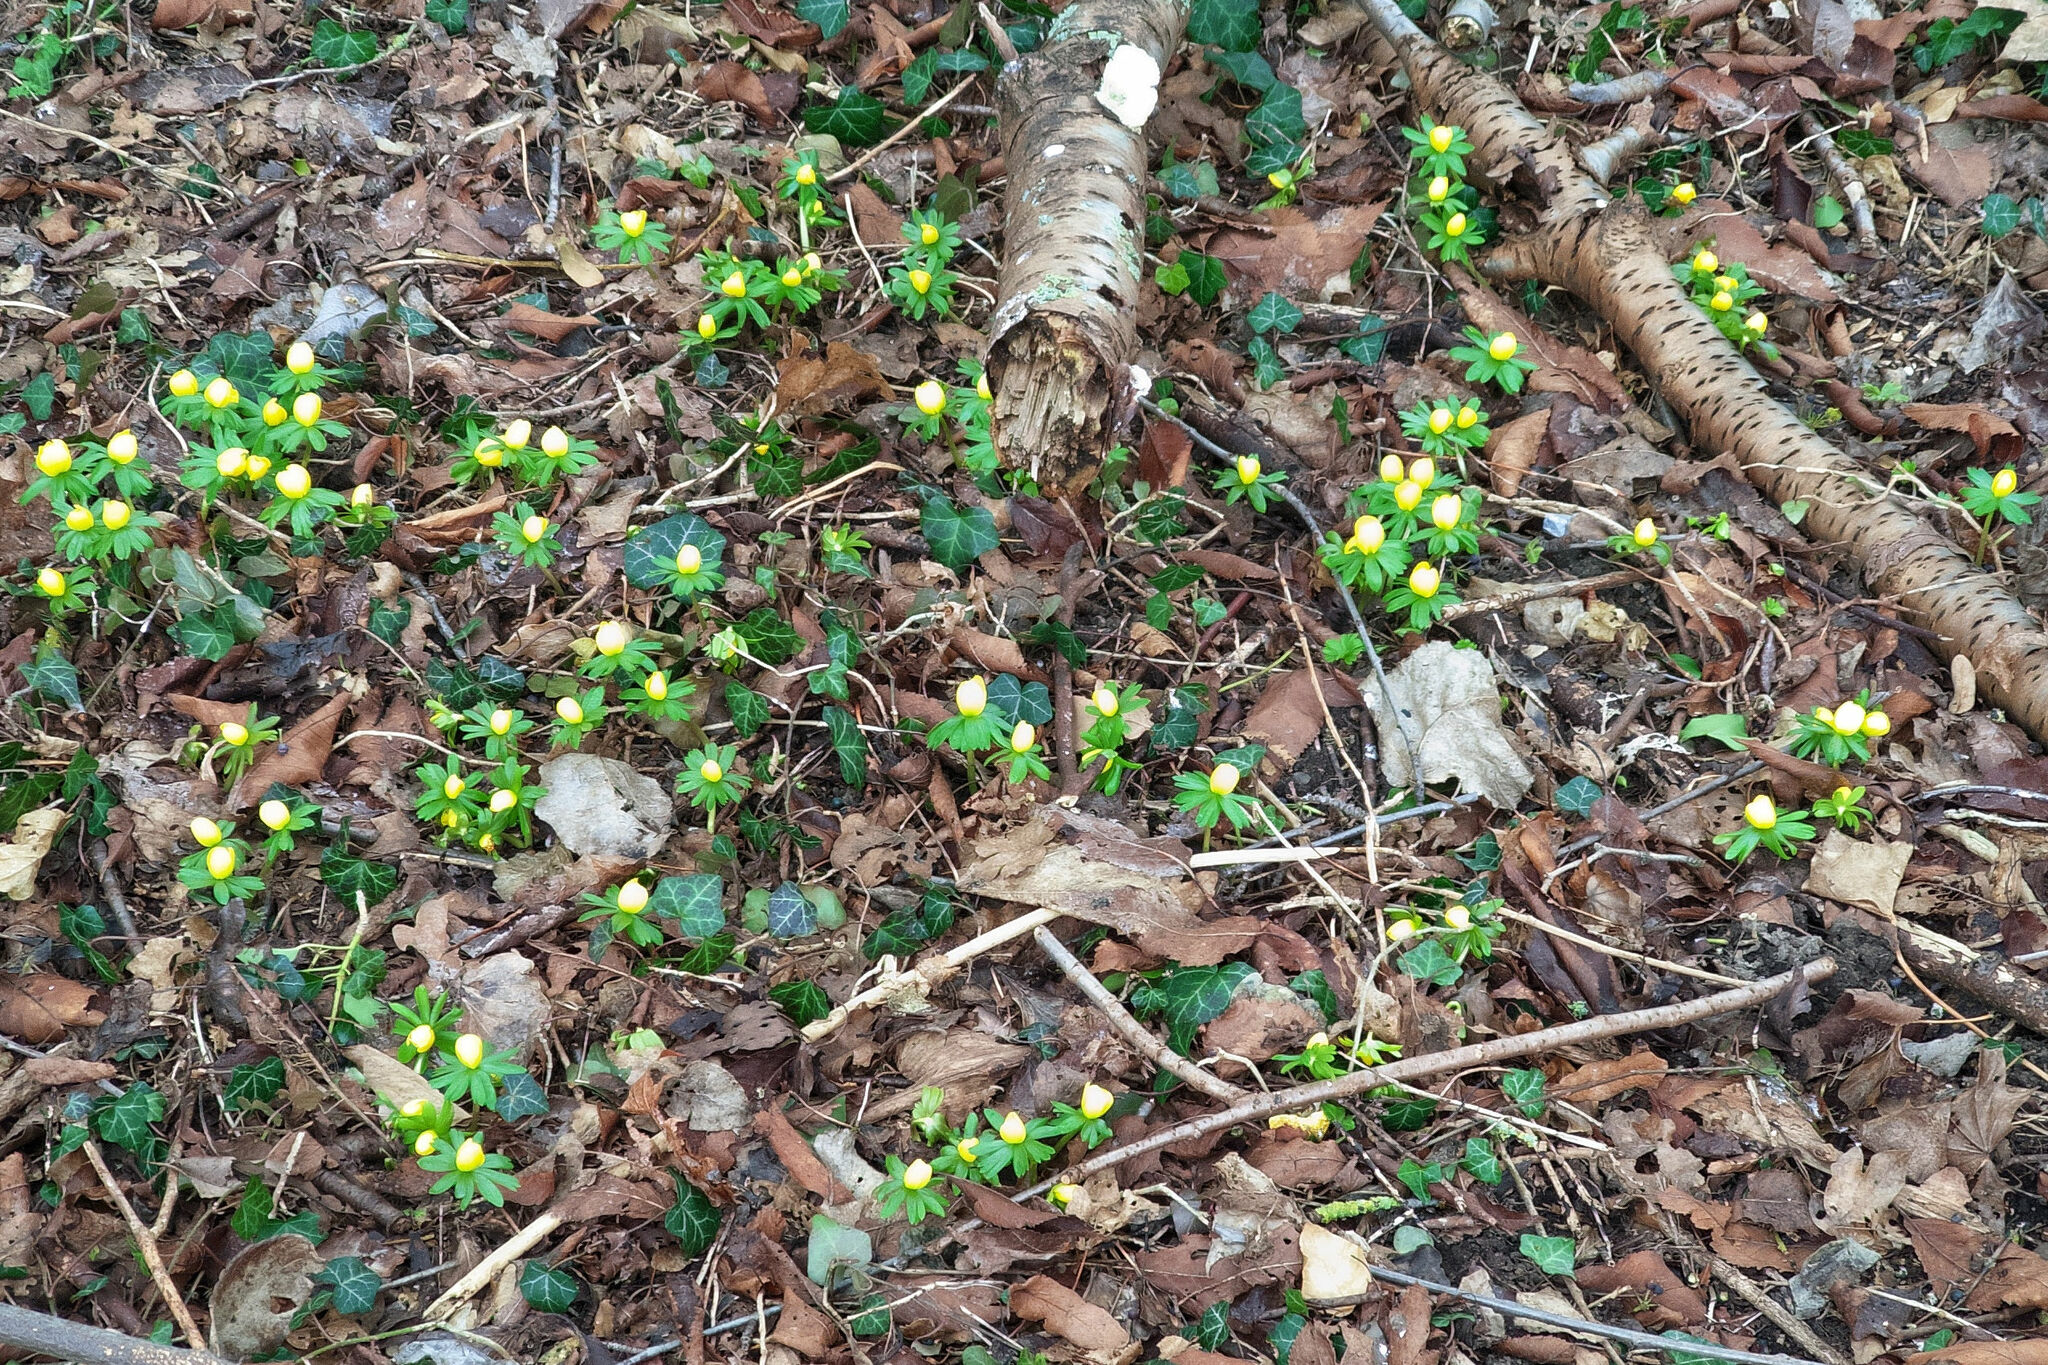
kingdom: Plantae
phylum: Tracheophyta
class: Magnoliopsida
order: Ranunculales
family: Ranunculaceae
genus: Eranthis
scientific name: Eranthis hyemalis
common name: Winter aconite
